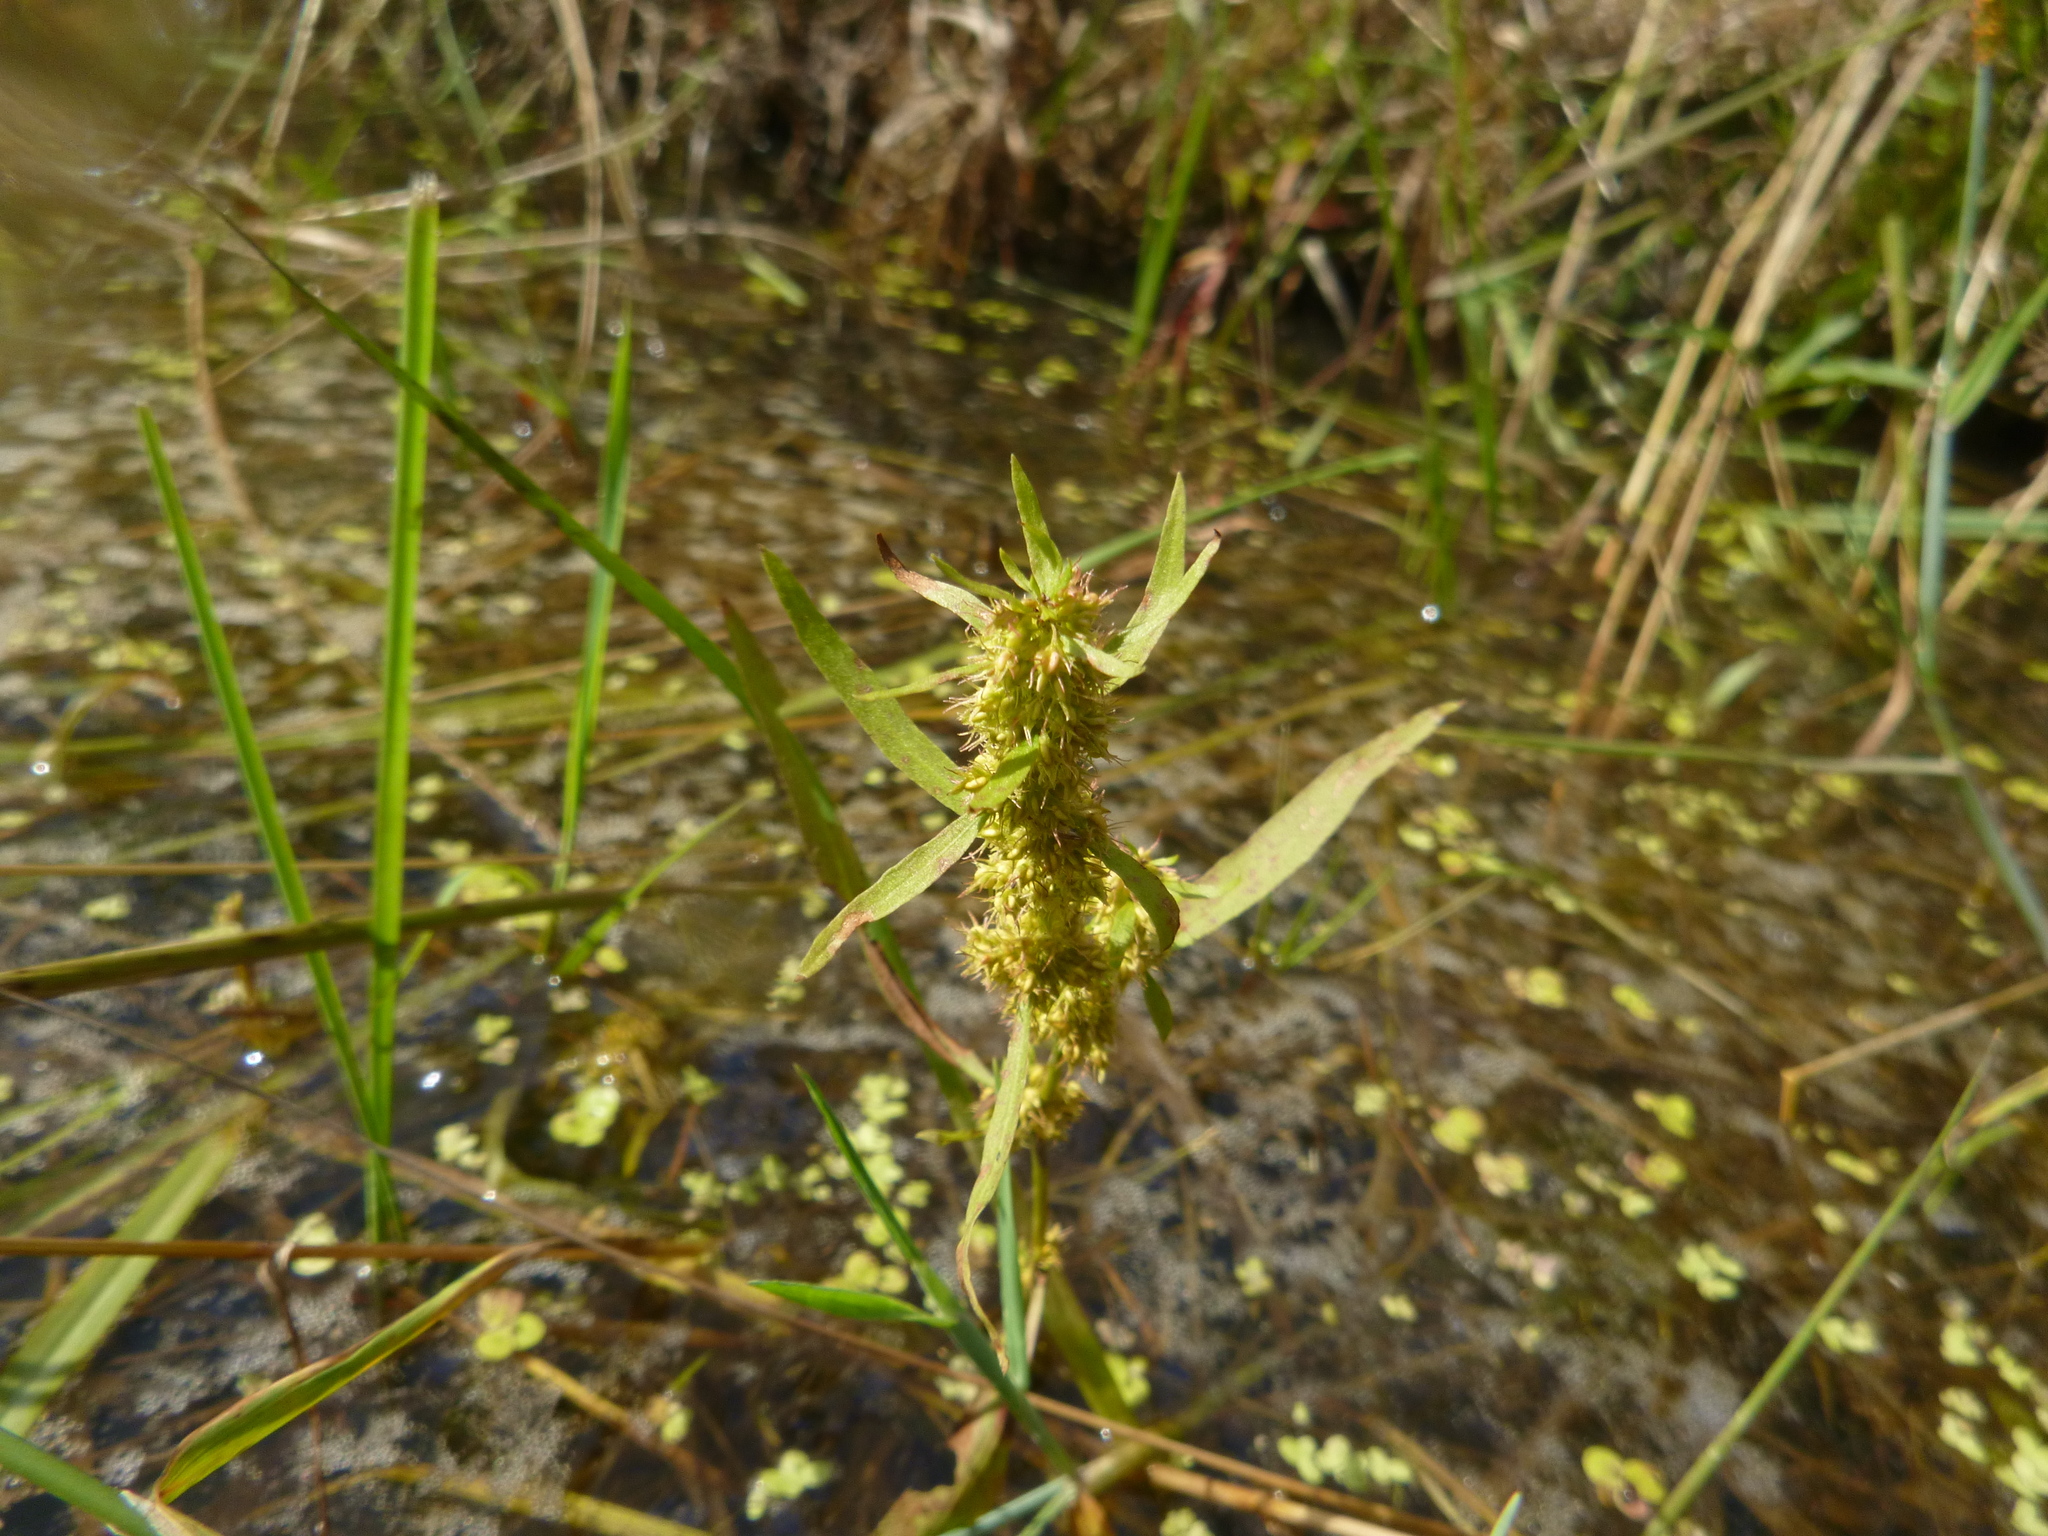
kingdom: Plantae
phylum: Tracheophyta
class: Magnoliopsida
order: Caryophyllales
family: Polygonaceae
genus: Rumex
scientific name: Rumex maritimus
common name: Golden dock
